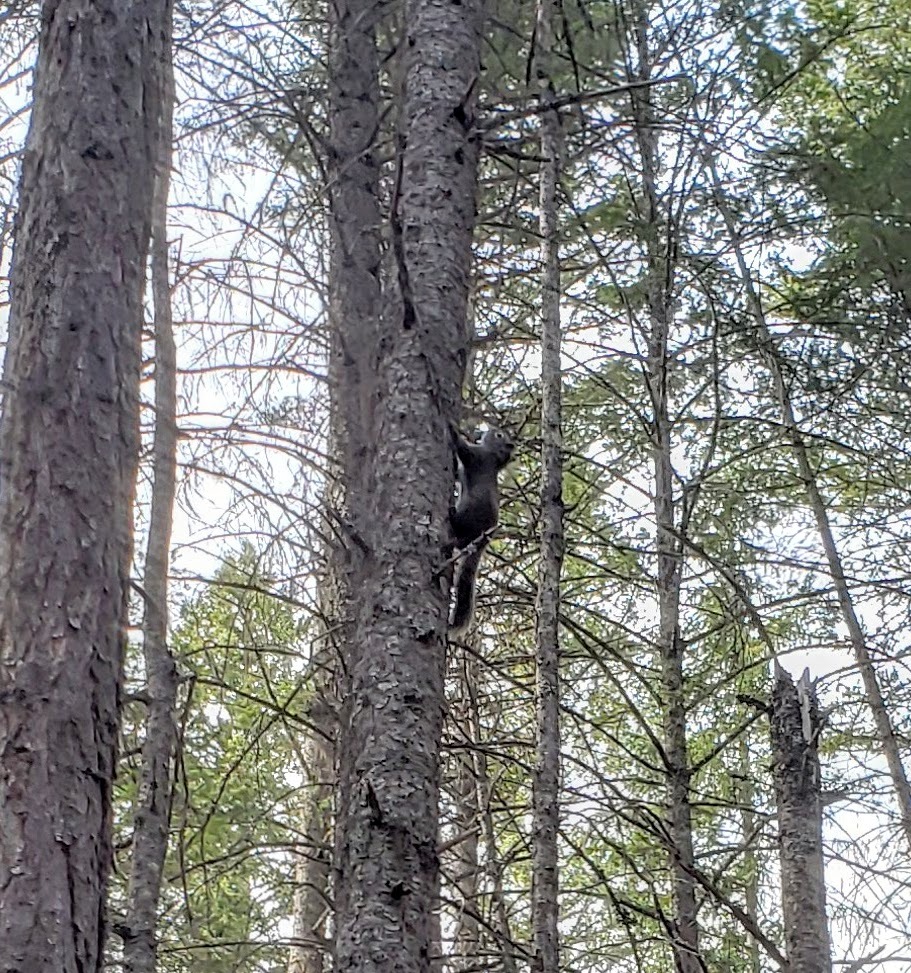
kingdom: Animalia
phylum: Chordata
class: Mammalia
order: Rodentia
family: Sciuridae
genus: Tamiasciurus
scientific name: Tamiasciurus hudsonicus
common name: Red squirrel
